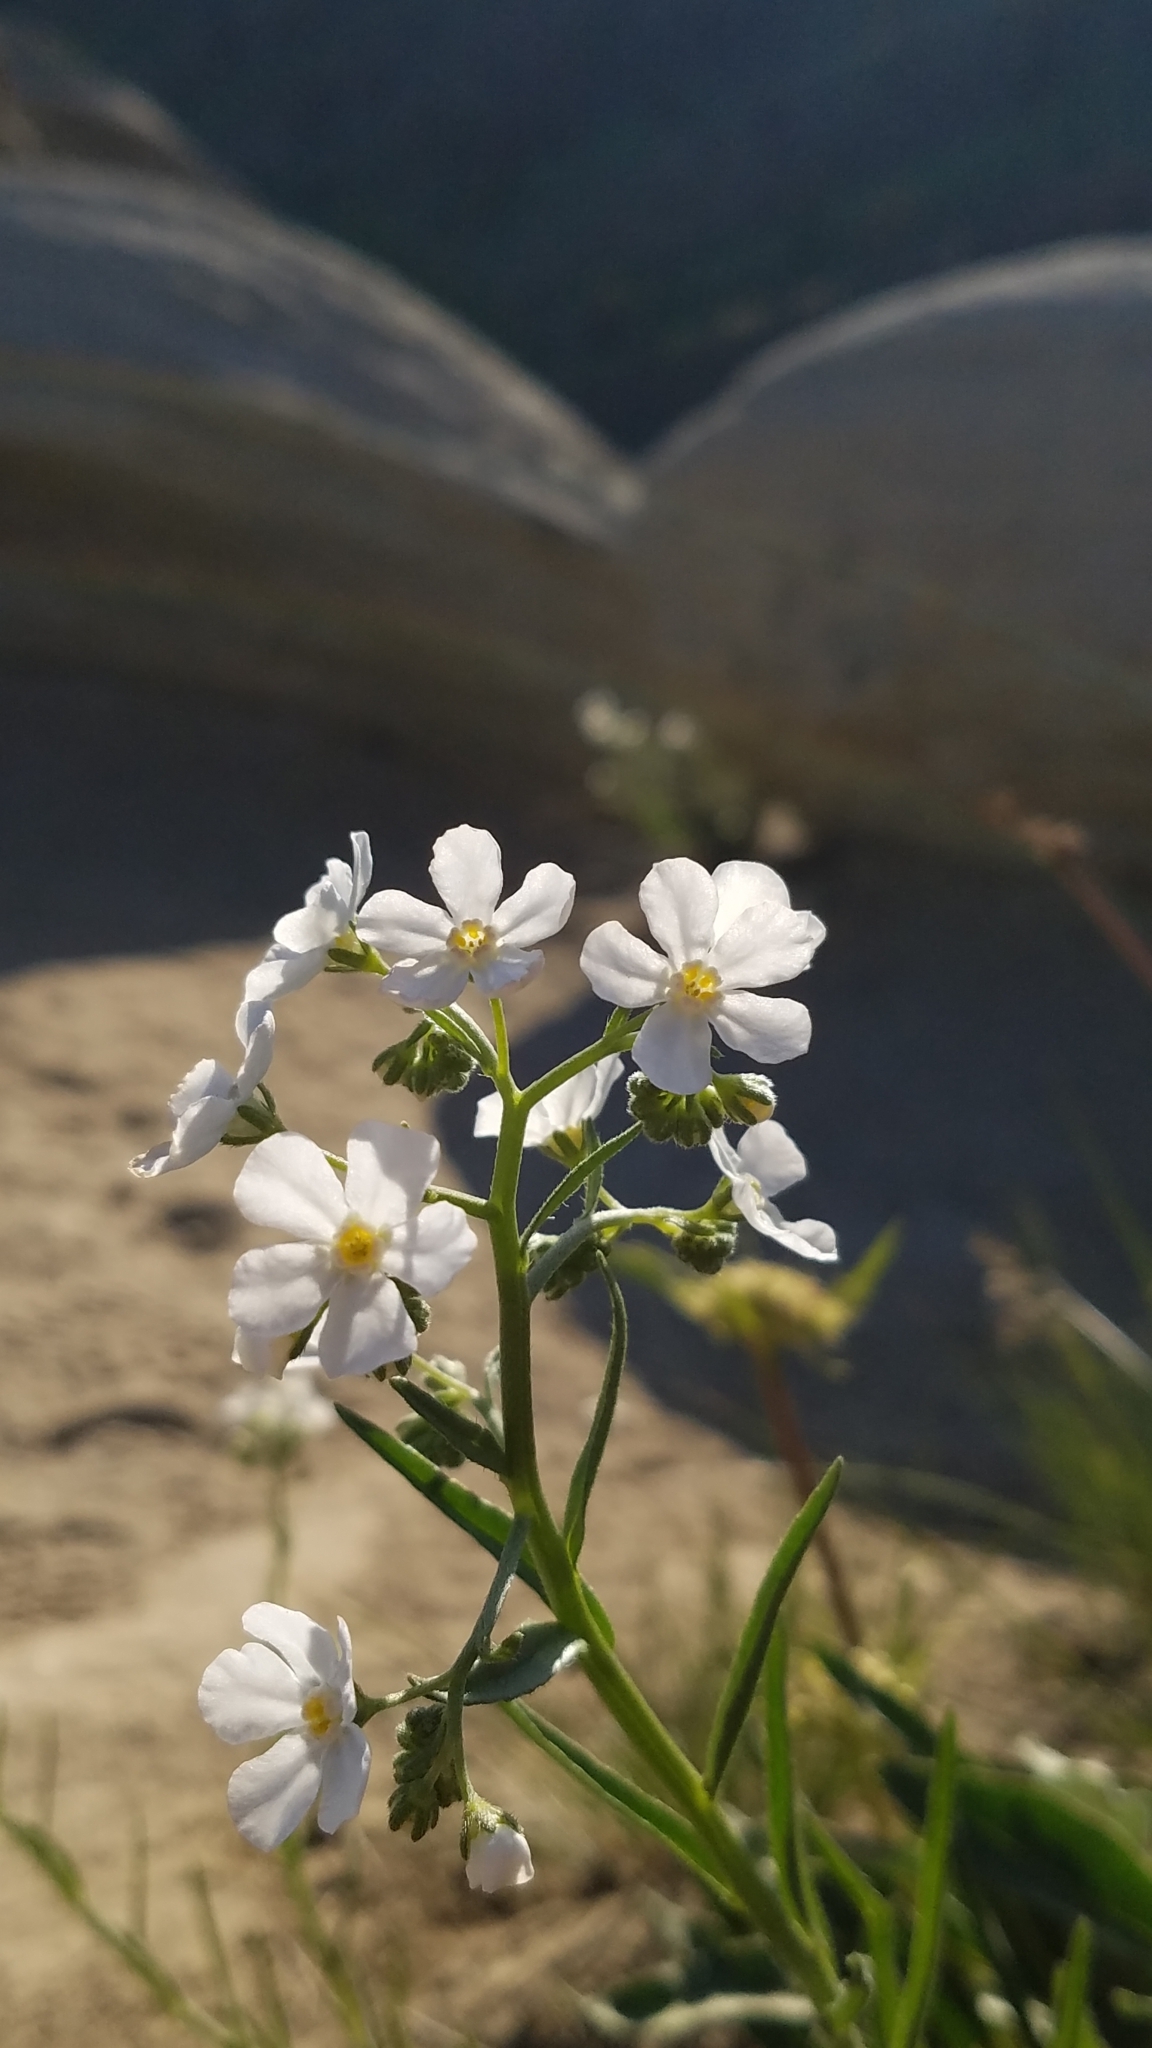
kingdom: Plantae
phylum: Tracheophyta
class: Magnoliopsida
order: Boraginales
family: Boraginaceae
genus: Hackelia
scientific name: Hackelia diffusa
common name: Spreading hackelia
